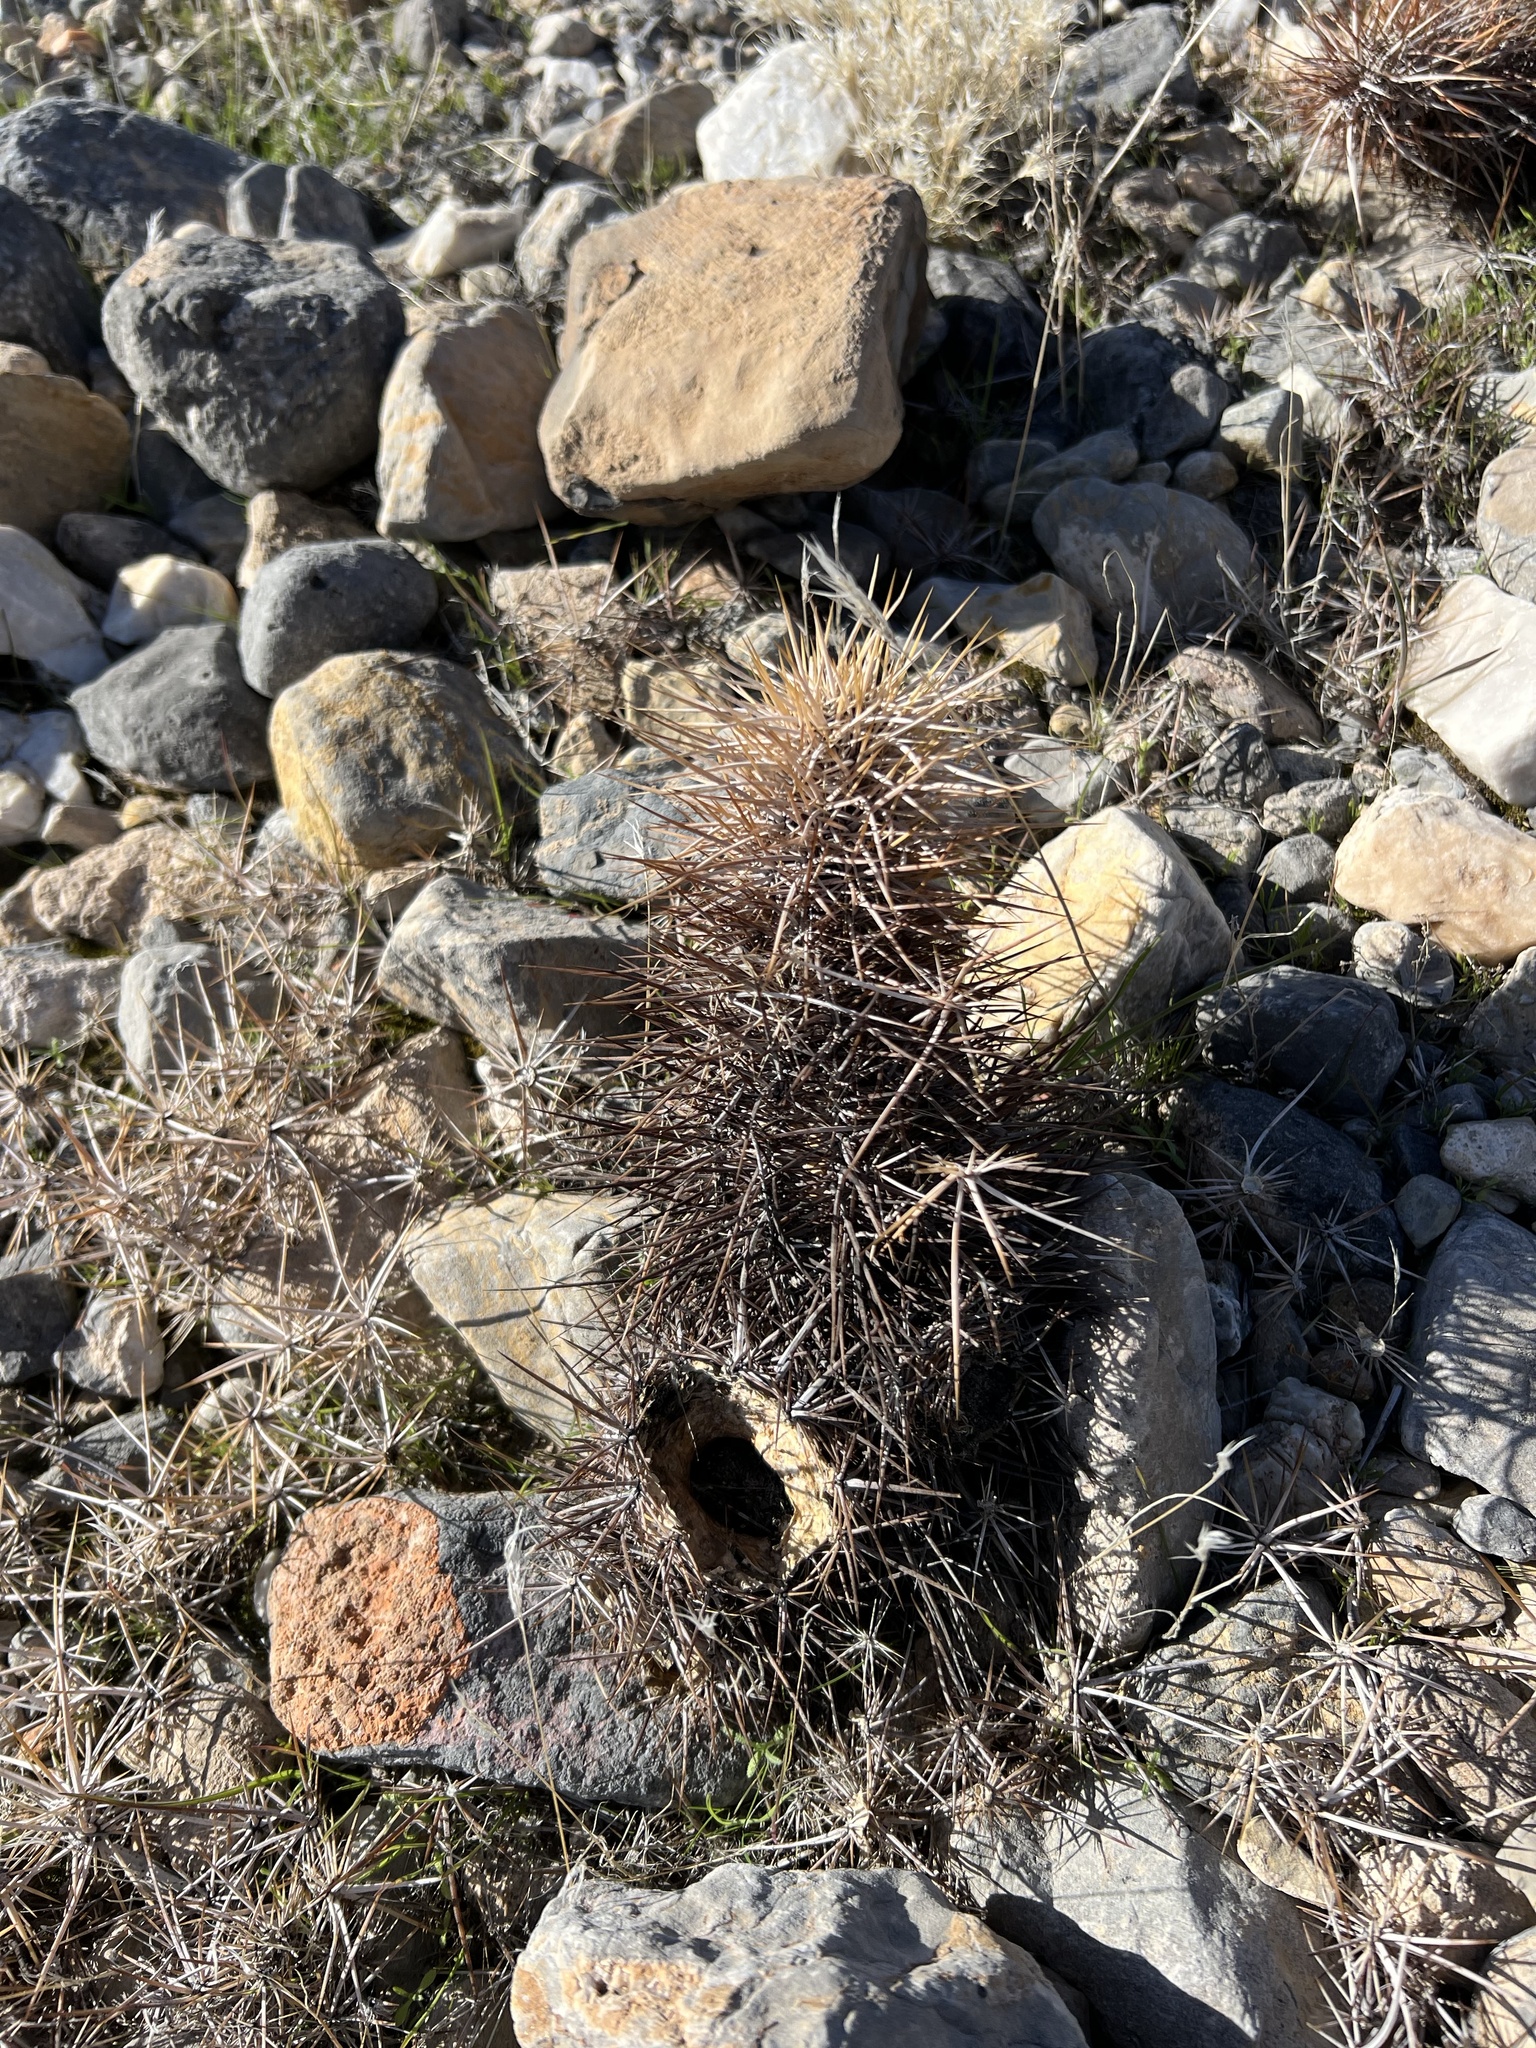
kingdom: Plantae
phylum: Tracheophyta
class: Magnoliopsida
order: Caryophyllales
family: Cactaceae
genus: Echinocereus
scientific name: Echinocereus engelmannii
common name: Engelmann's hedgehog cactus
